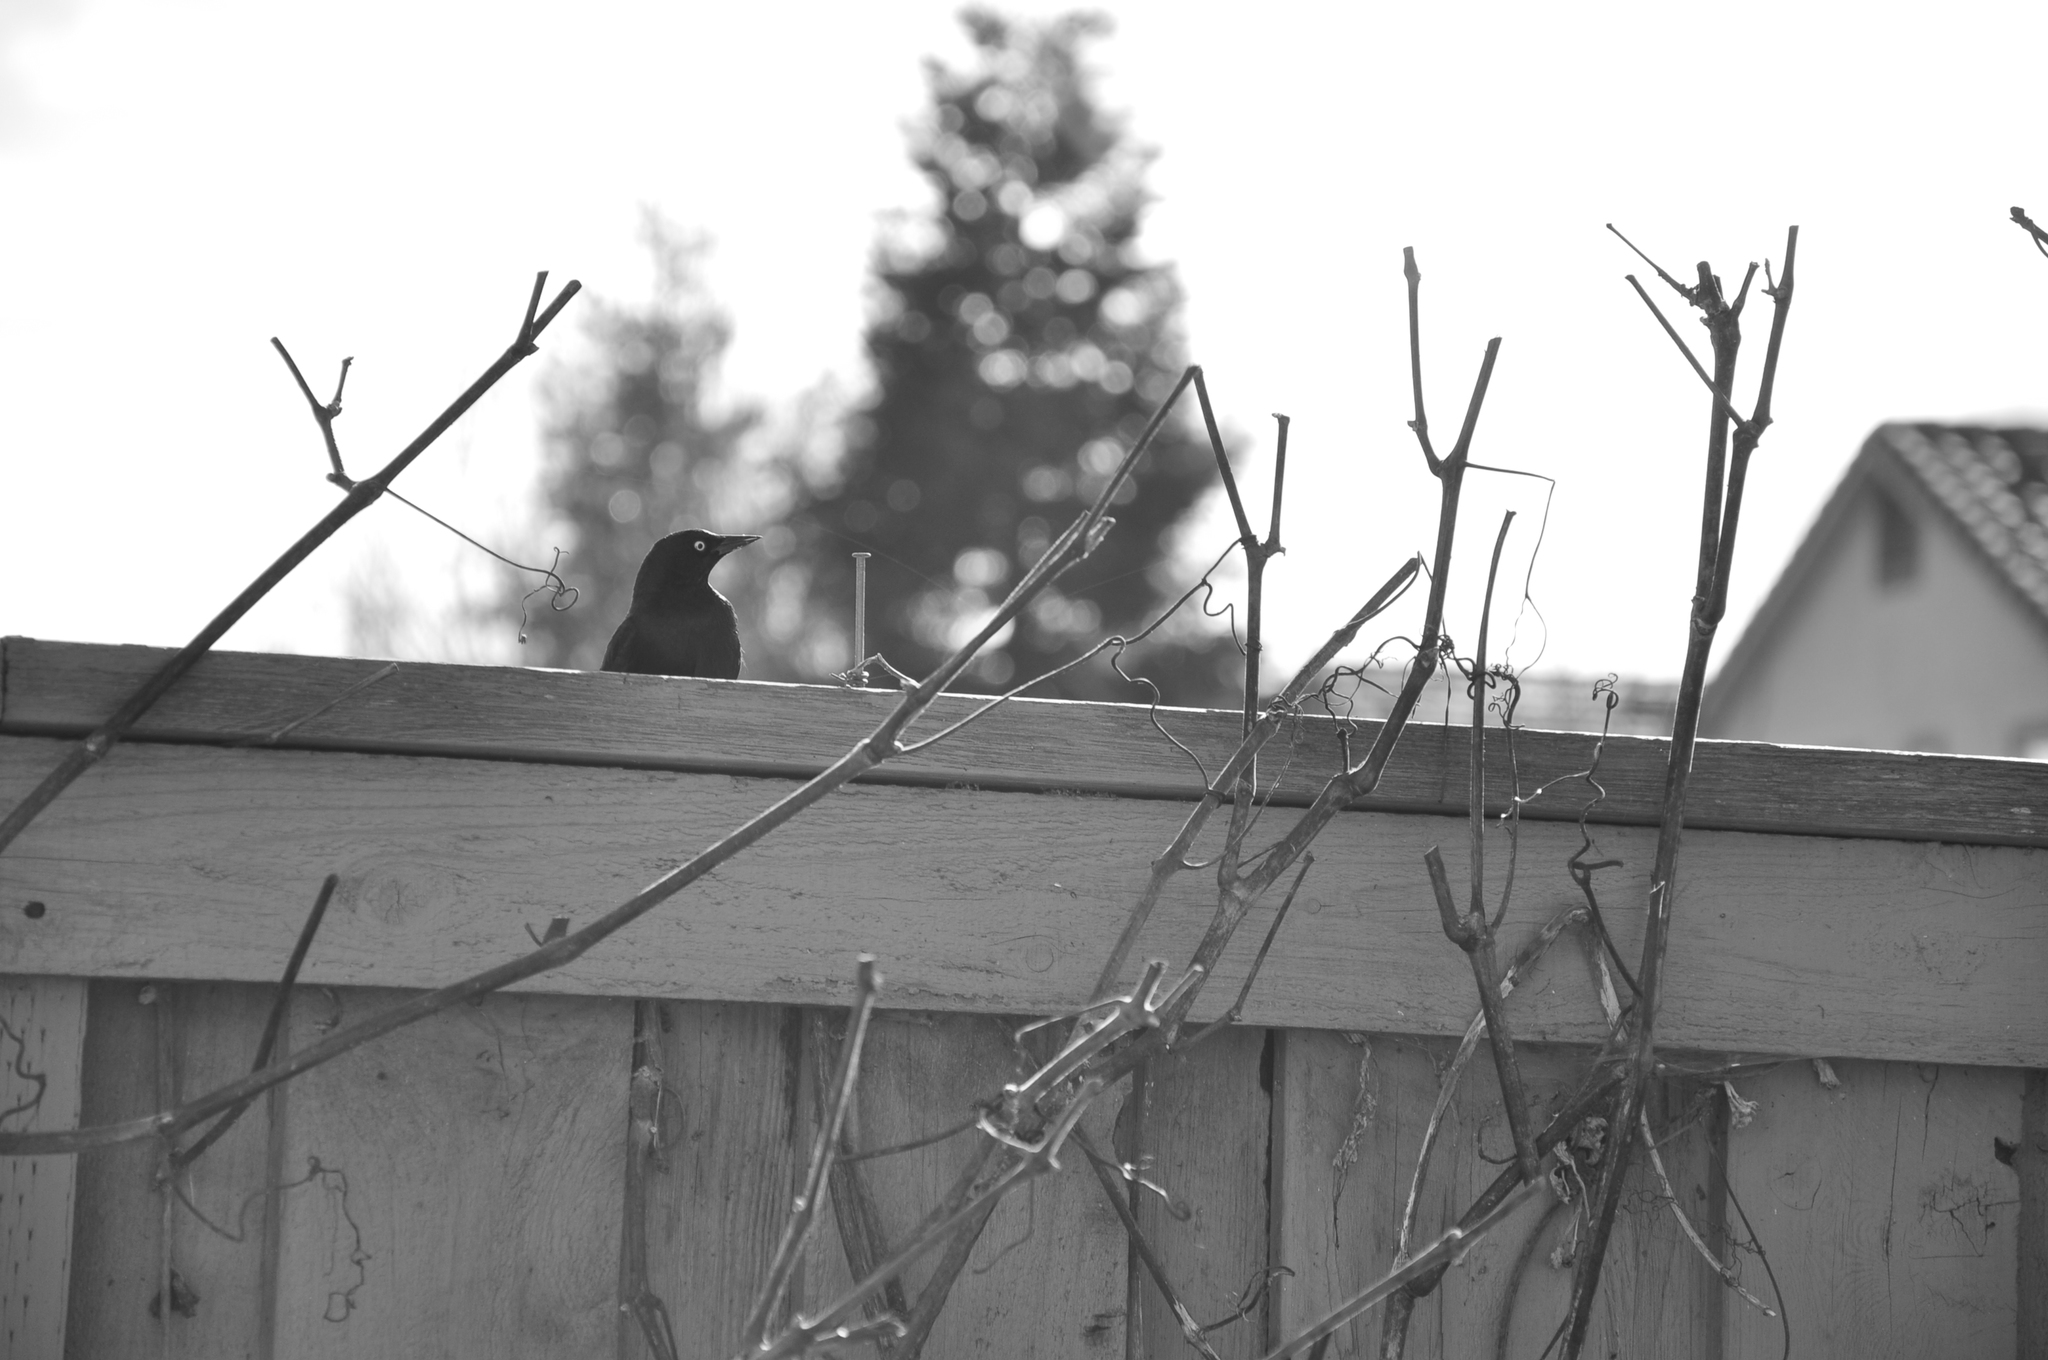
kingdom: Animalia
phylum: Chordata
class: Aves
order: Passeriformes
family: Icteridae
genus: Euphagus
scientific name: Euphagus cyanocephalus
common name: Brewer's blackbird
